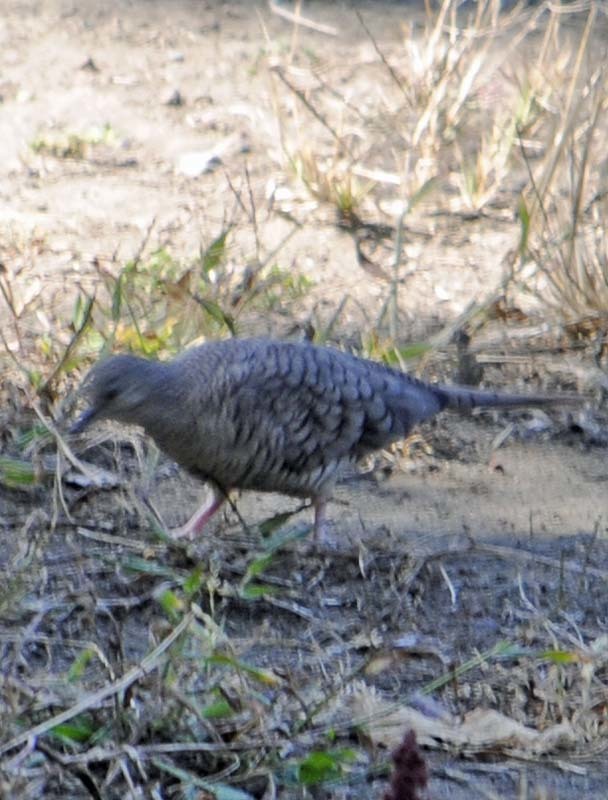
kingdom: Animalia
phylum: Chordata
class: Aves
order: Columbiformes
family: Columbidae
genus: Columbina
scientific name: Columbina inca
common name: Inca dove
